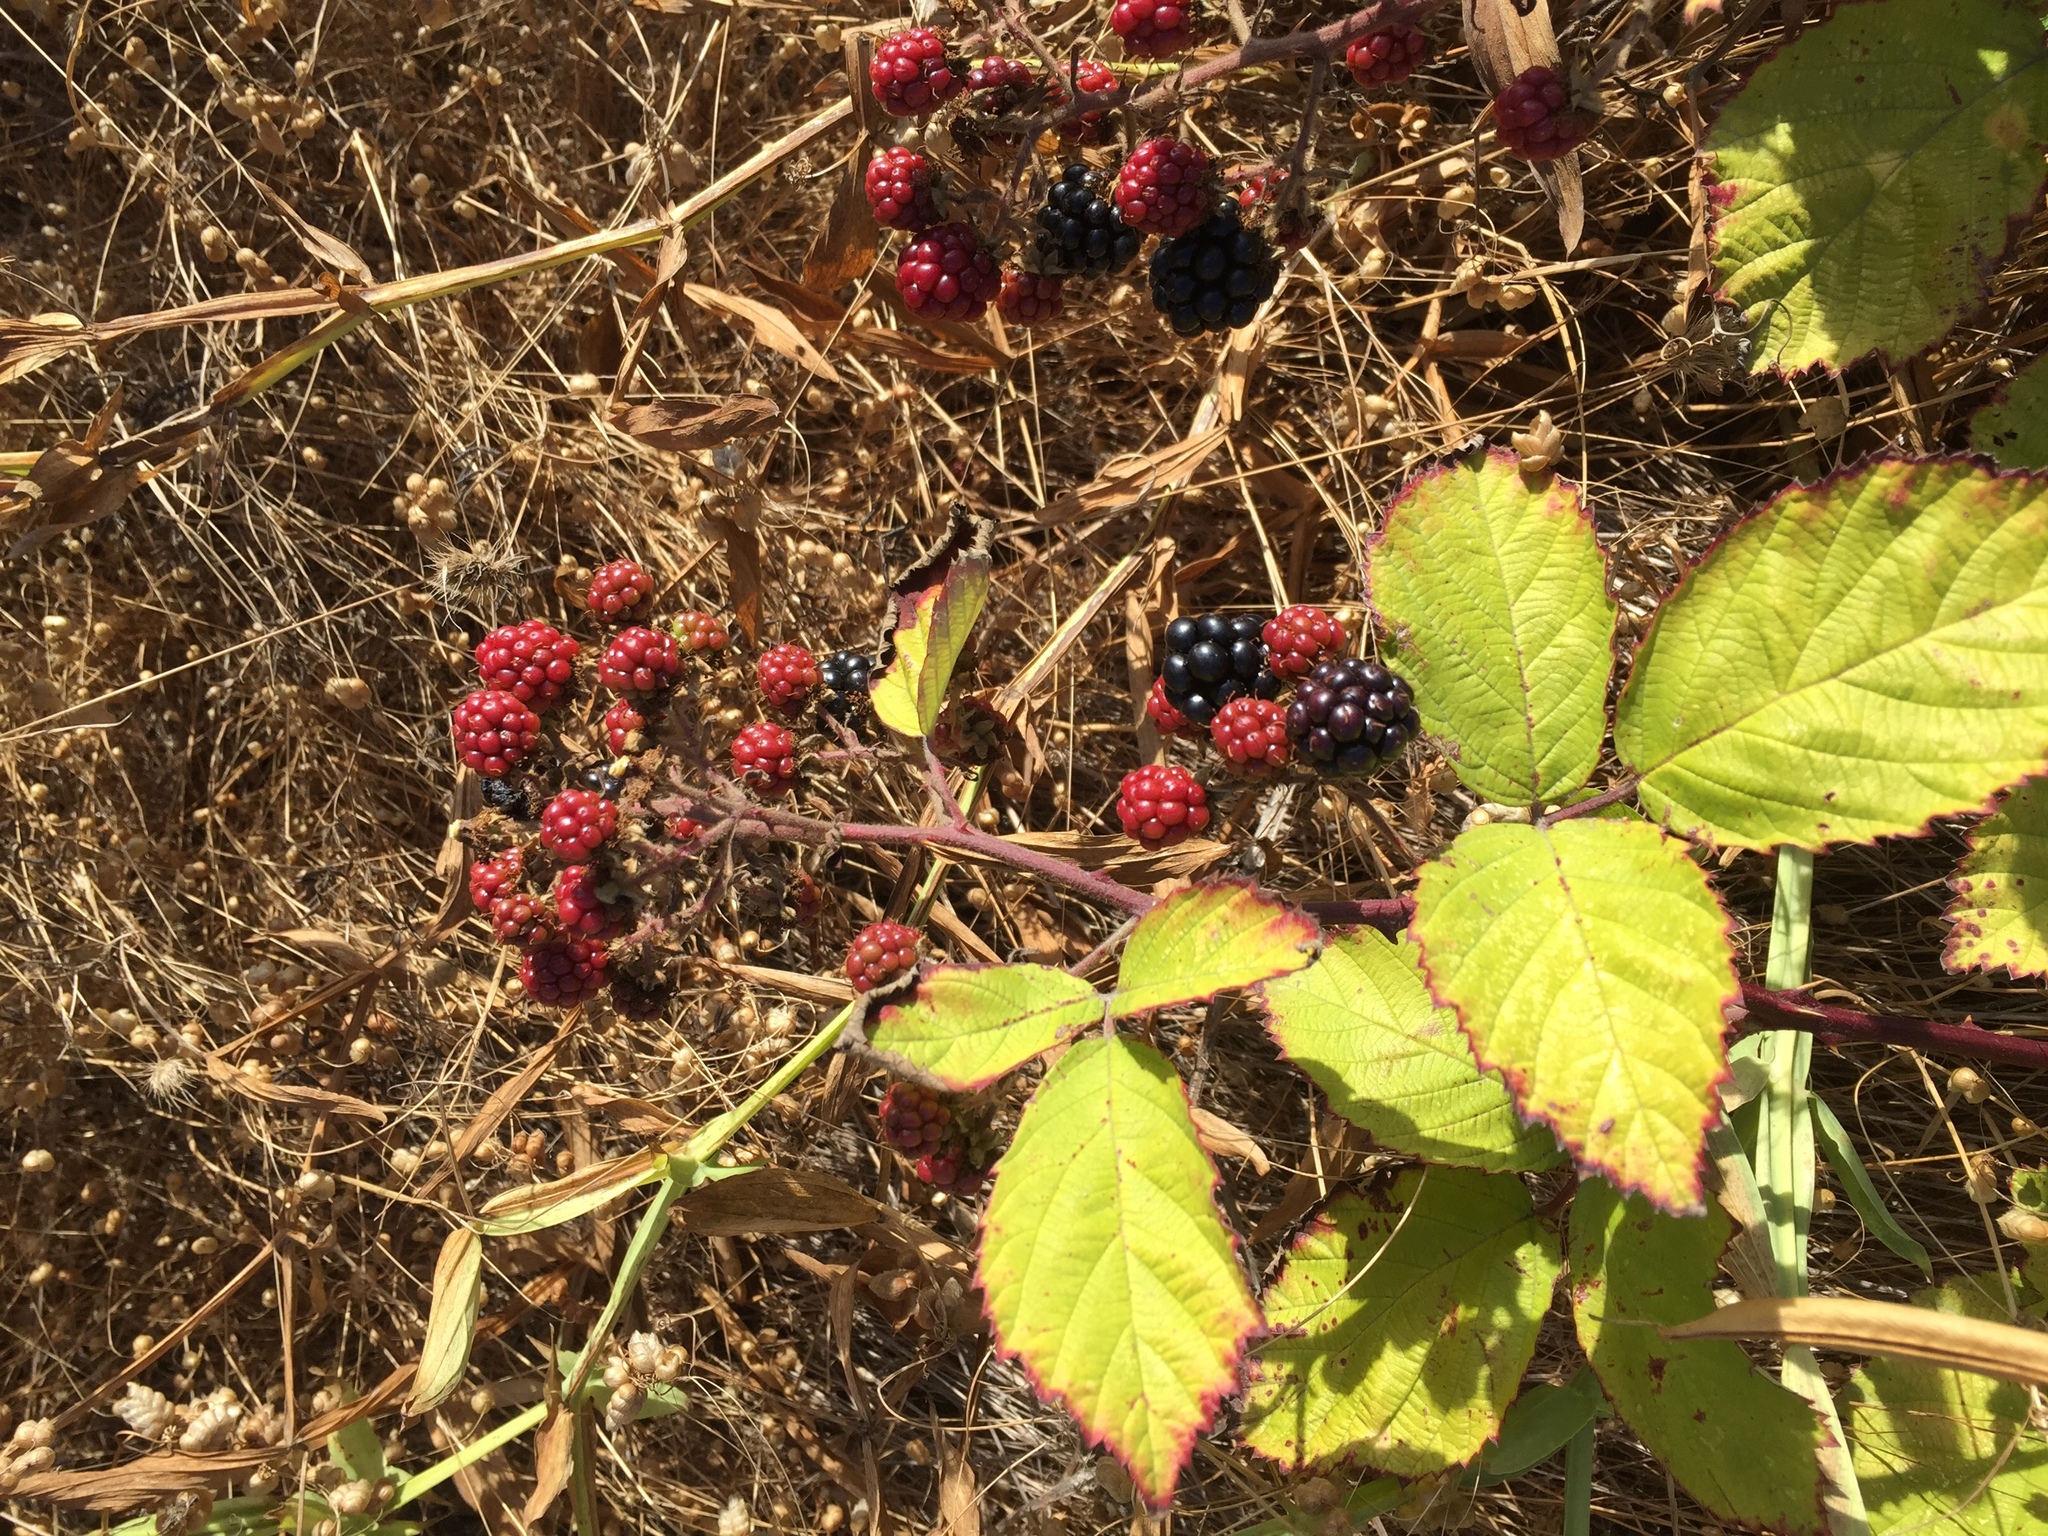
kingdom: Plantae
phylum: Tracheophyta
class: Magnoliopsida
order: Rosales
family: Rosaceae
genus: Rubus
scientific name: Rubus praecox
